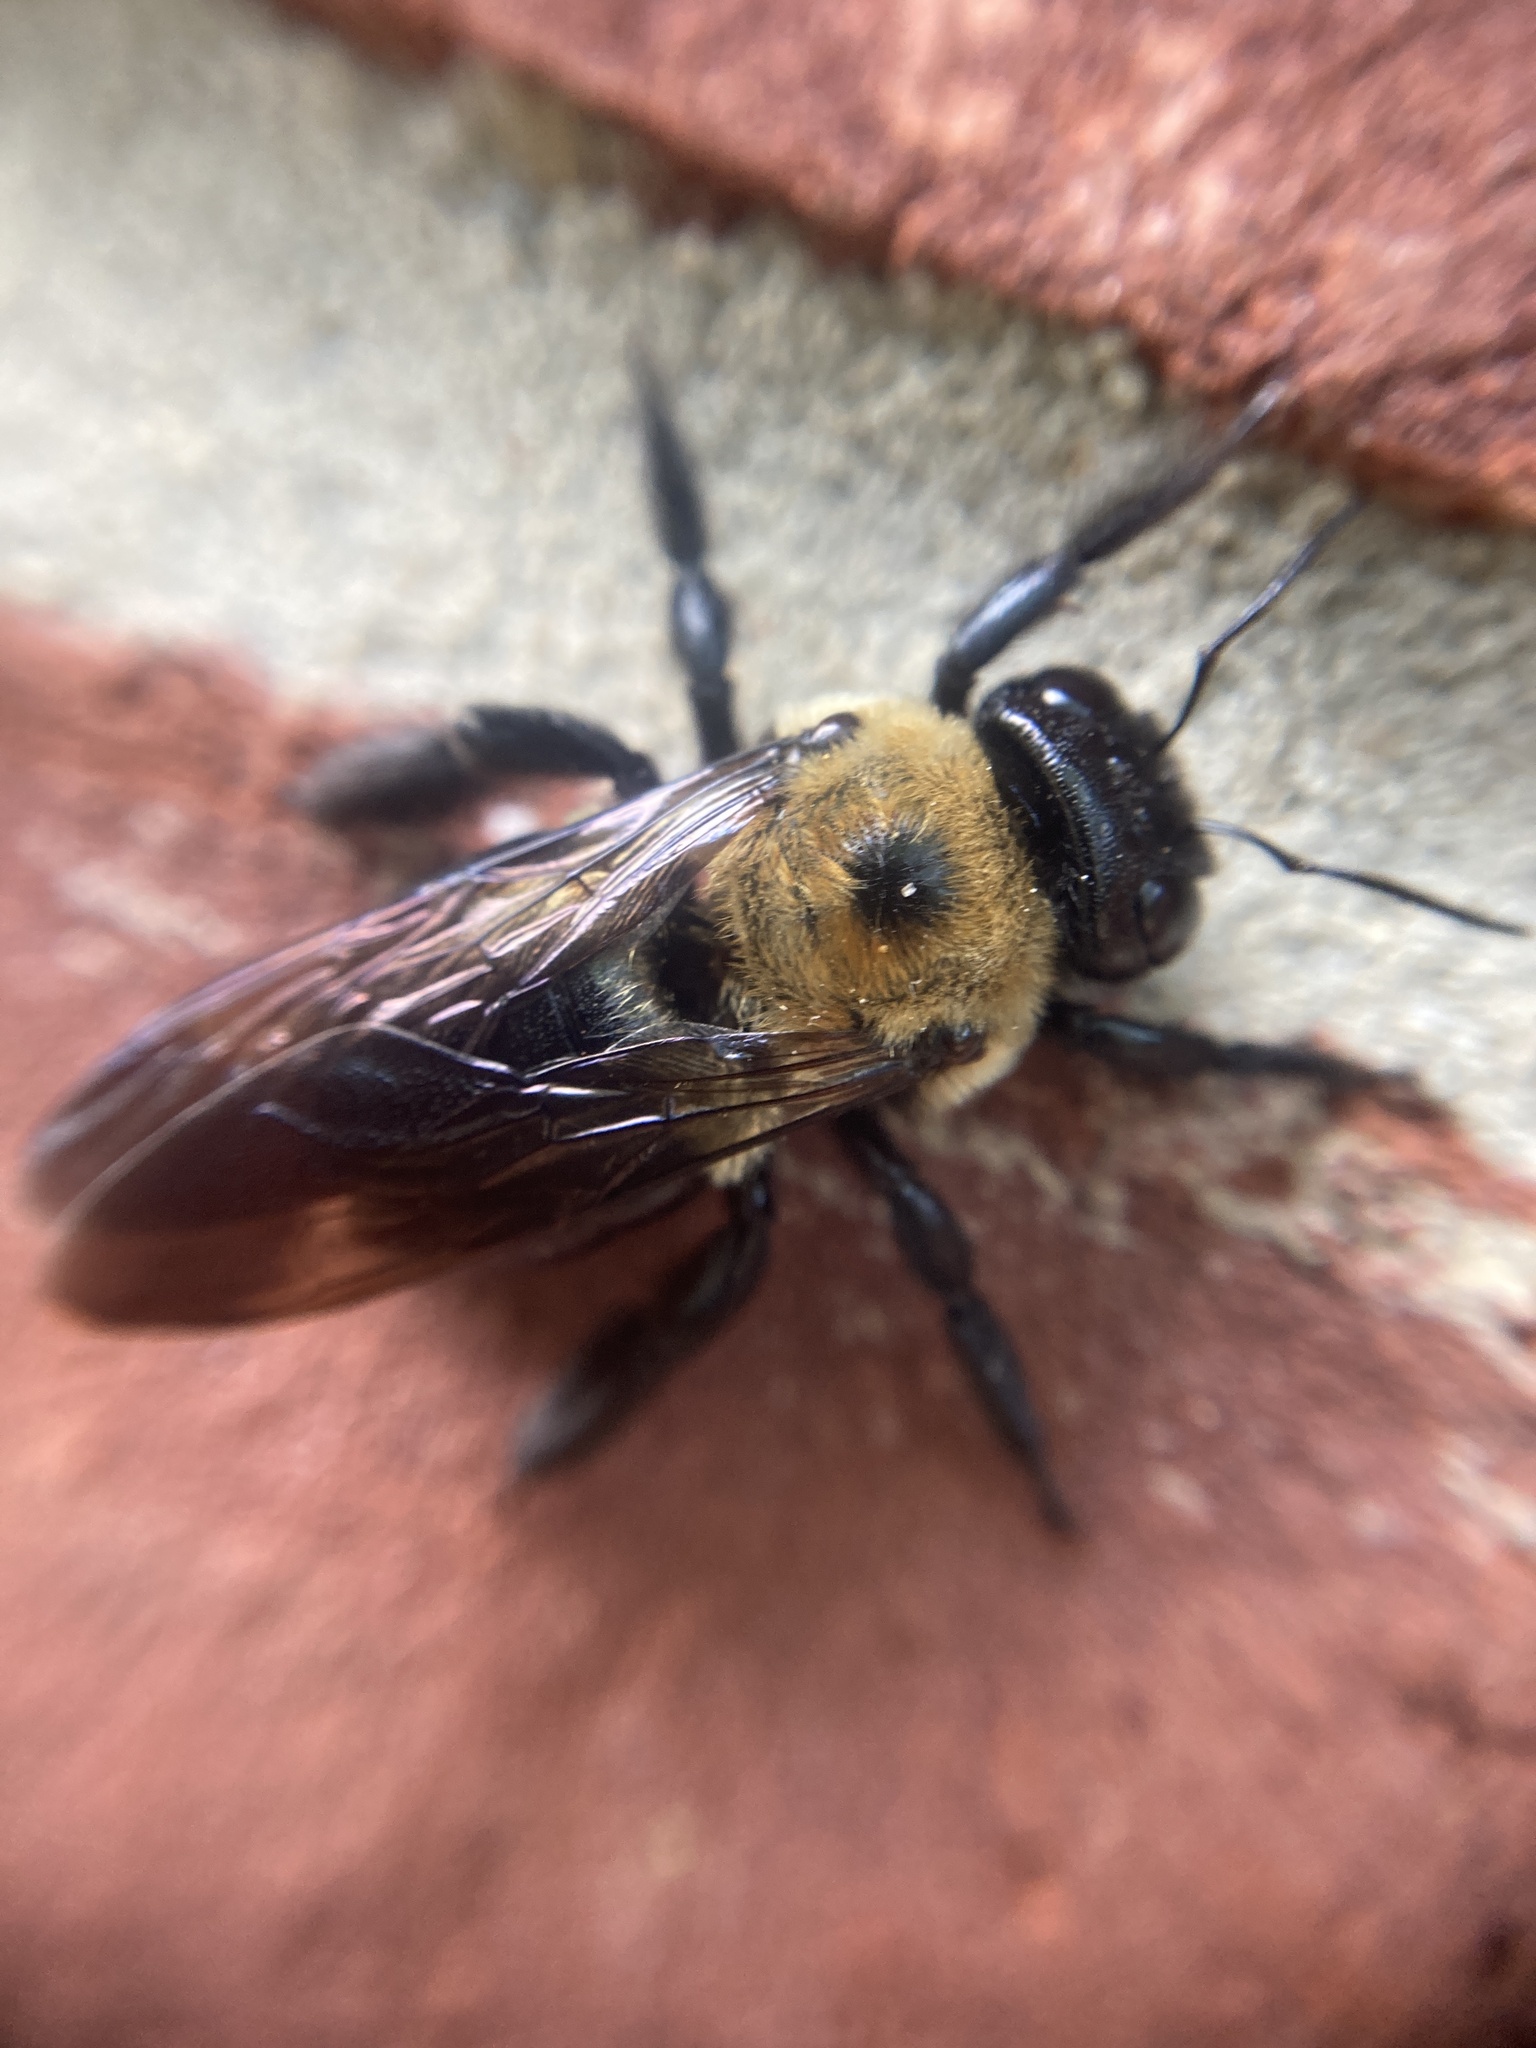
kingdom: Animalia
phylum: Arthropoda
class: Insecta
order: Hymenoptera
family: Apidae
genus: Xylocopa
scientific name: Xylocopa virginica
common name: Carpenter bee
